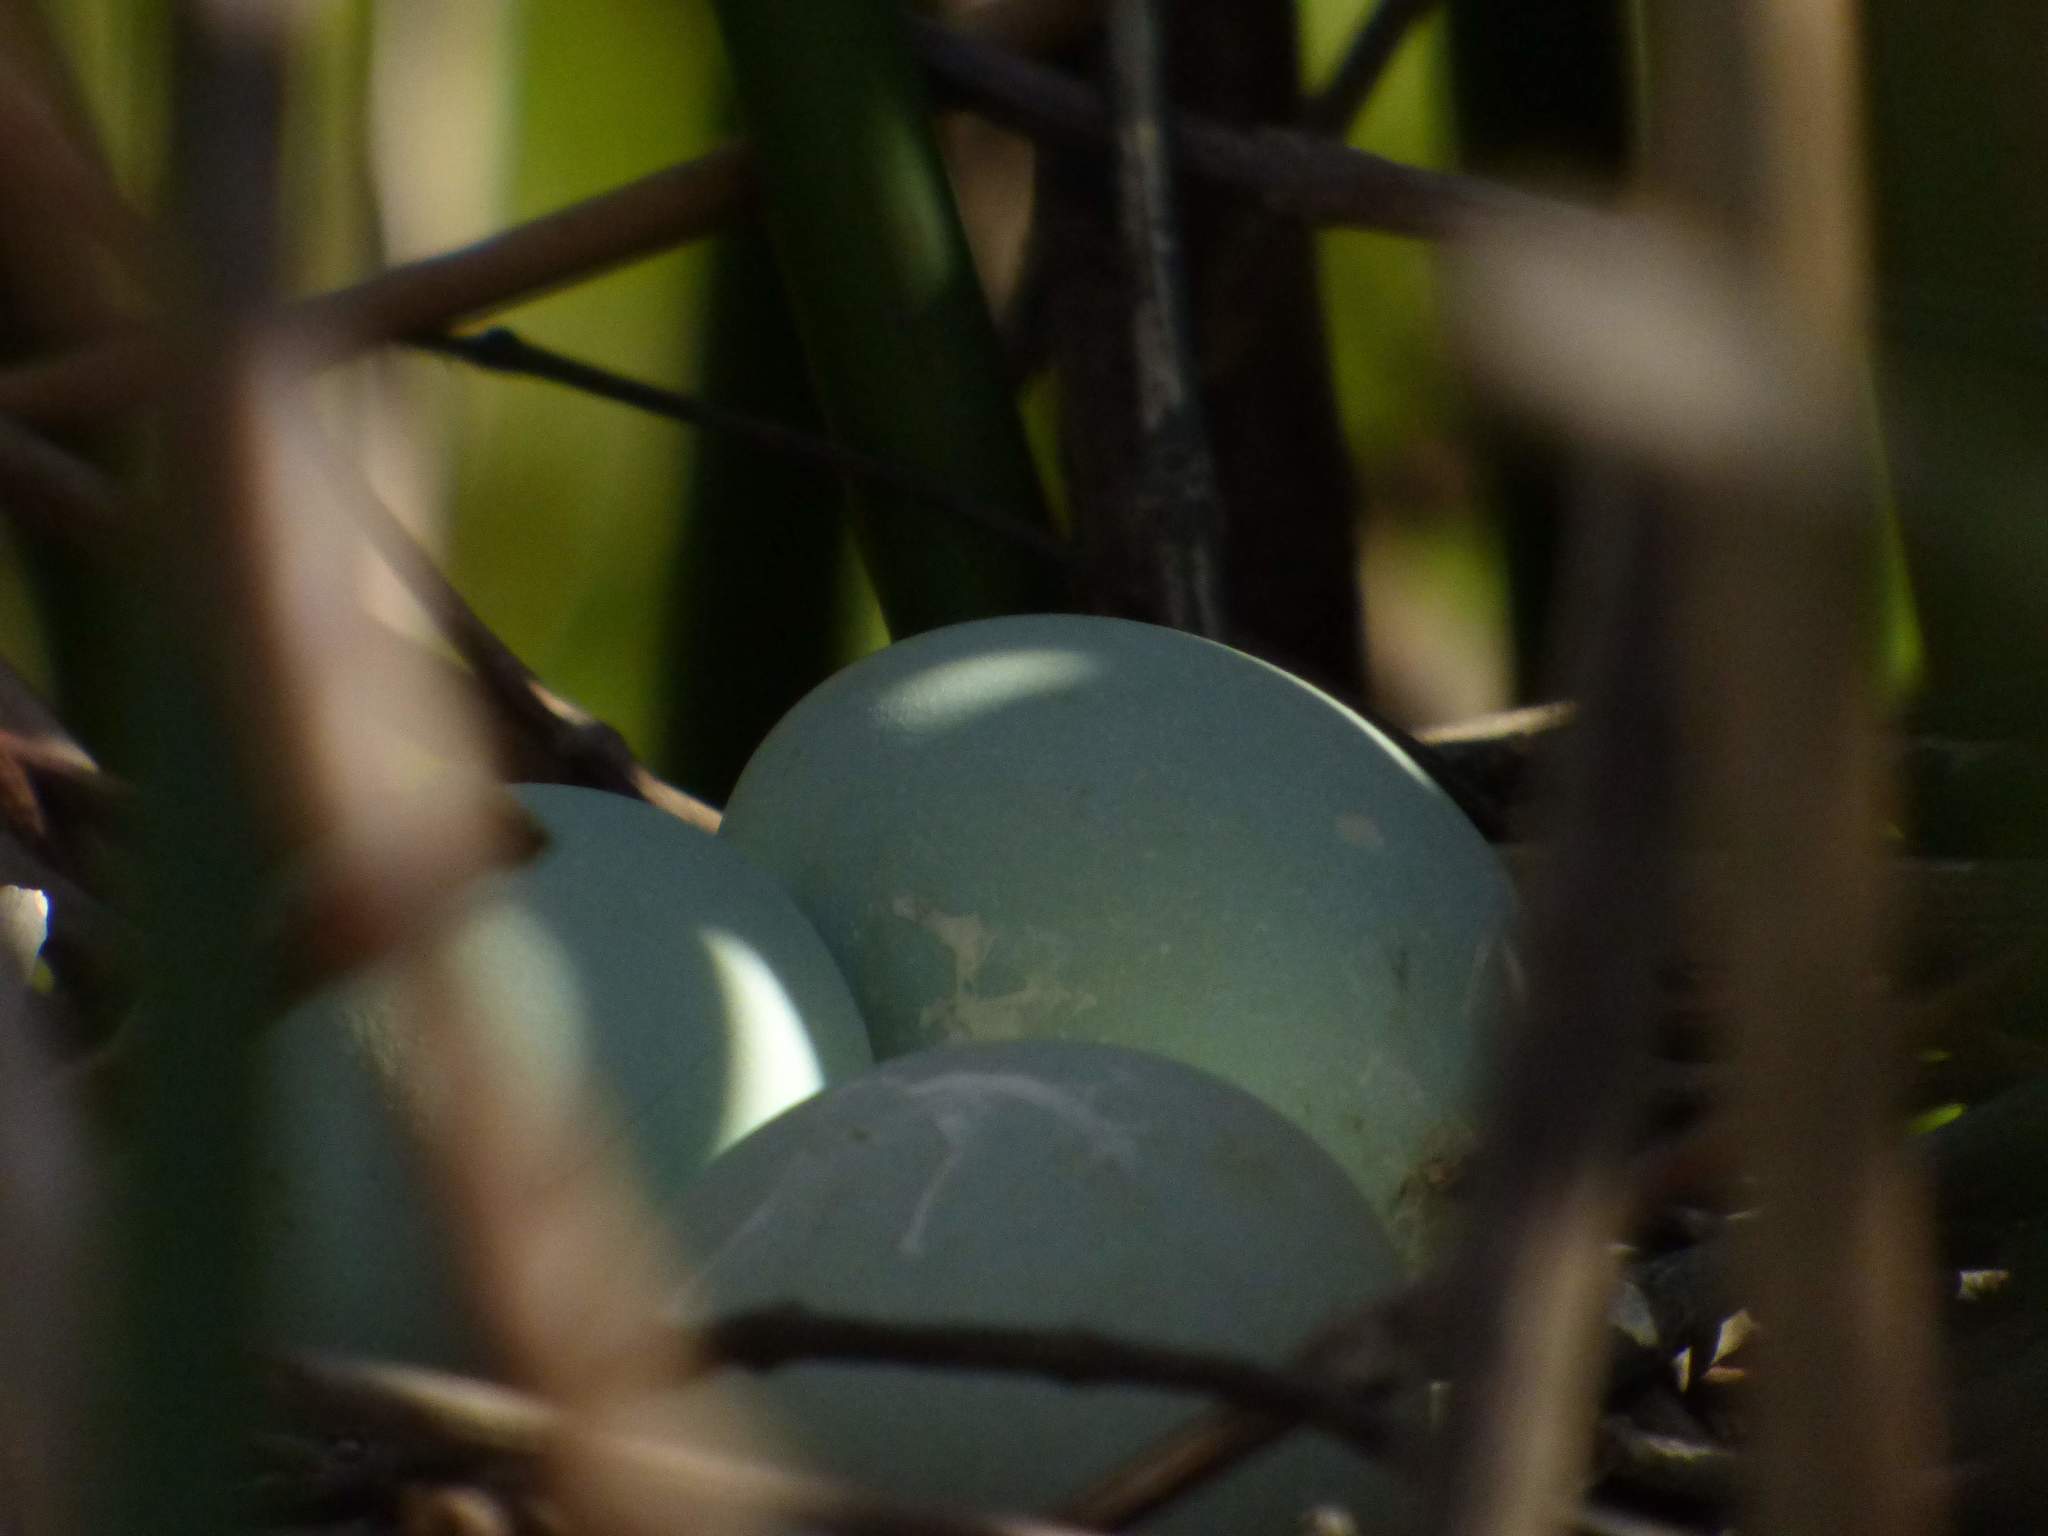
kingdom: Animalia
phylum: Chordata
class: Aves
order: Pelecaniformes
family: Ardeidae
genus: Butorides
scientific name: Butorides striata
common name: Striated heron
